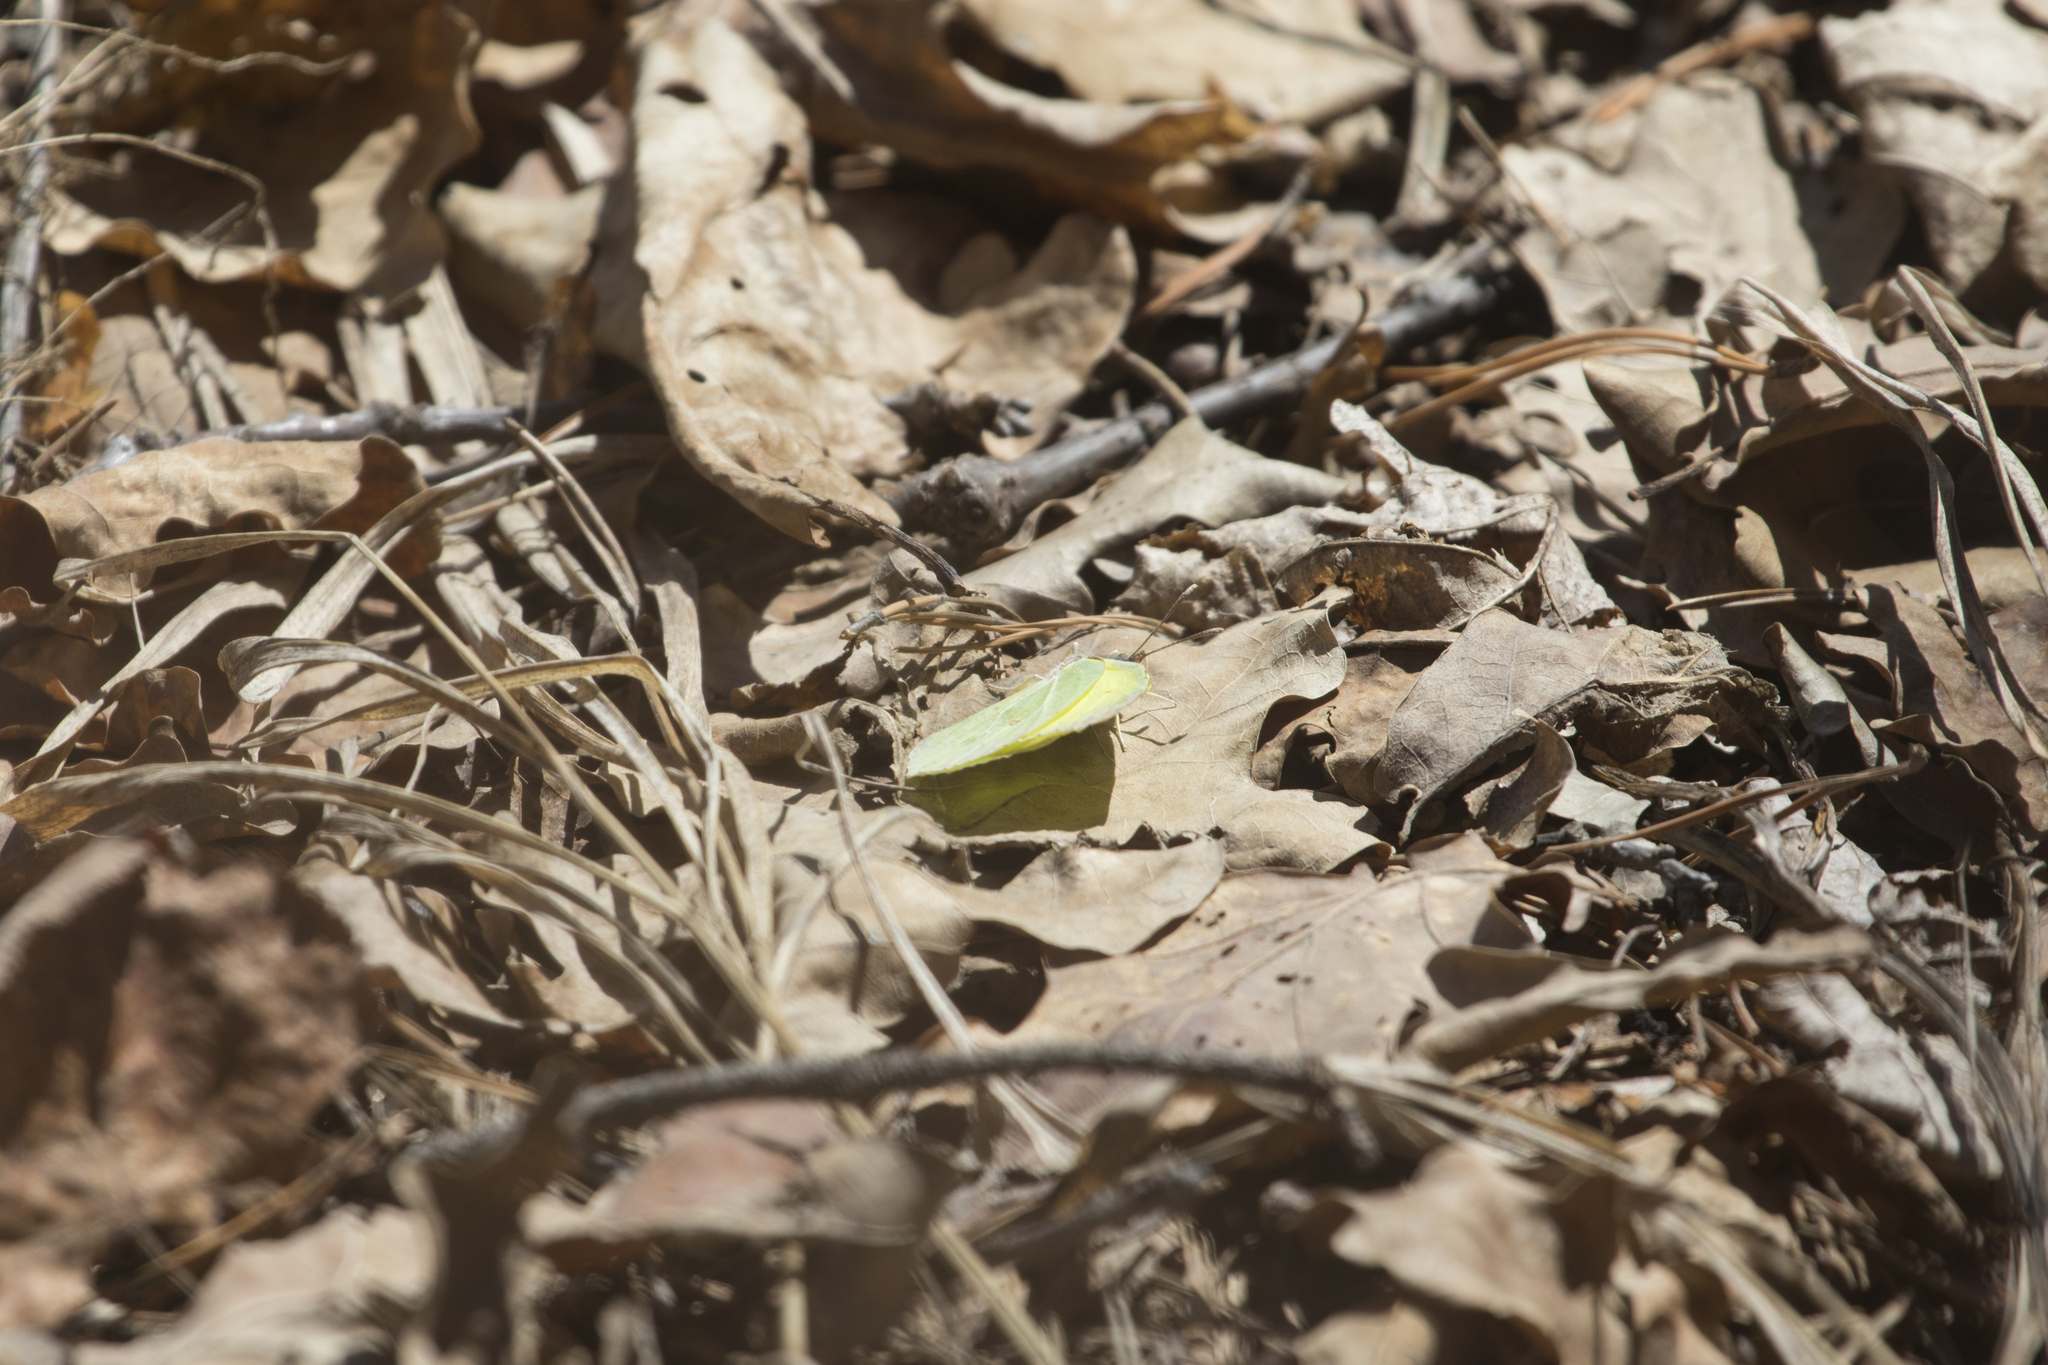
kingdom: Animalia
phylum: Arthropoda
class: Insecta
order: Lepidoptera
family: Pieridae
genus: Gonepteryx
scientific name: Gonepteryx rhamni
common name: Brimstone
